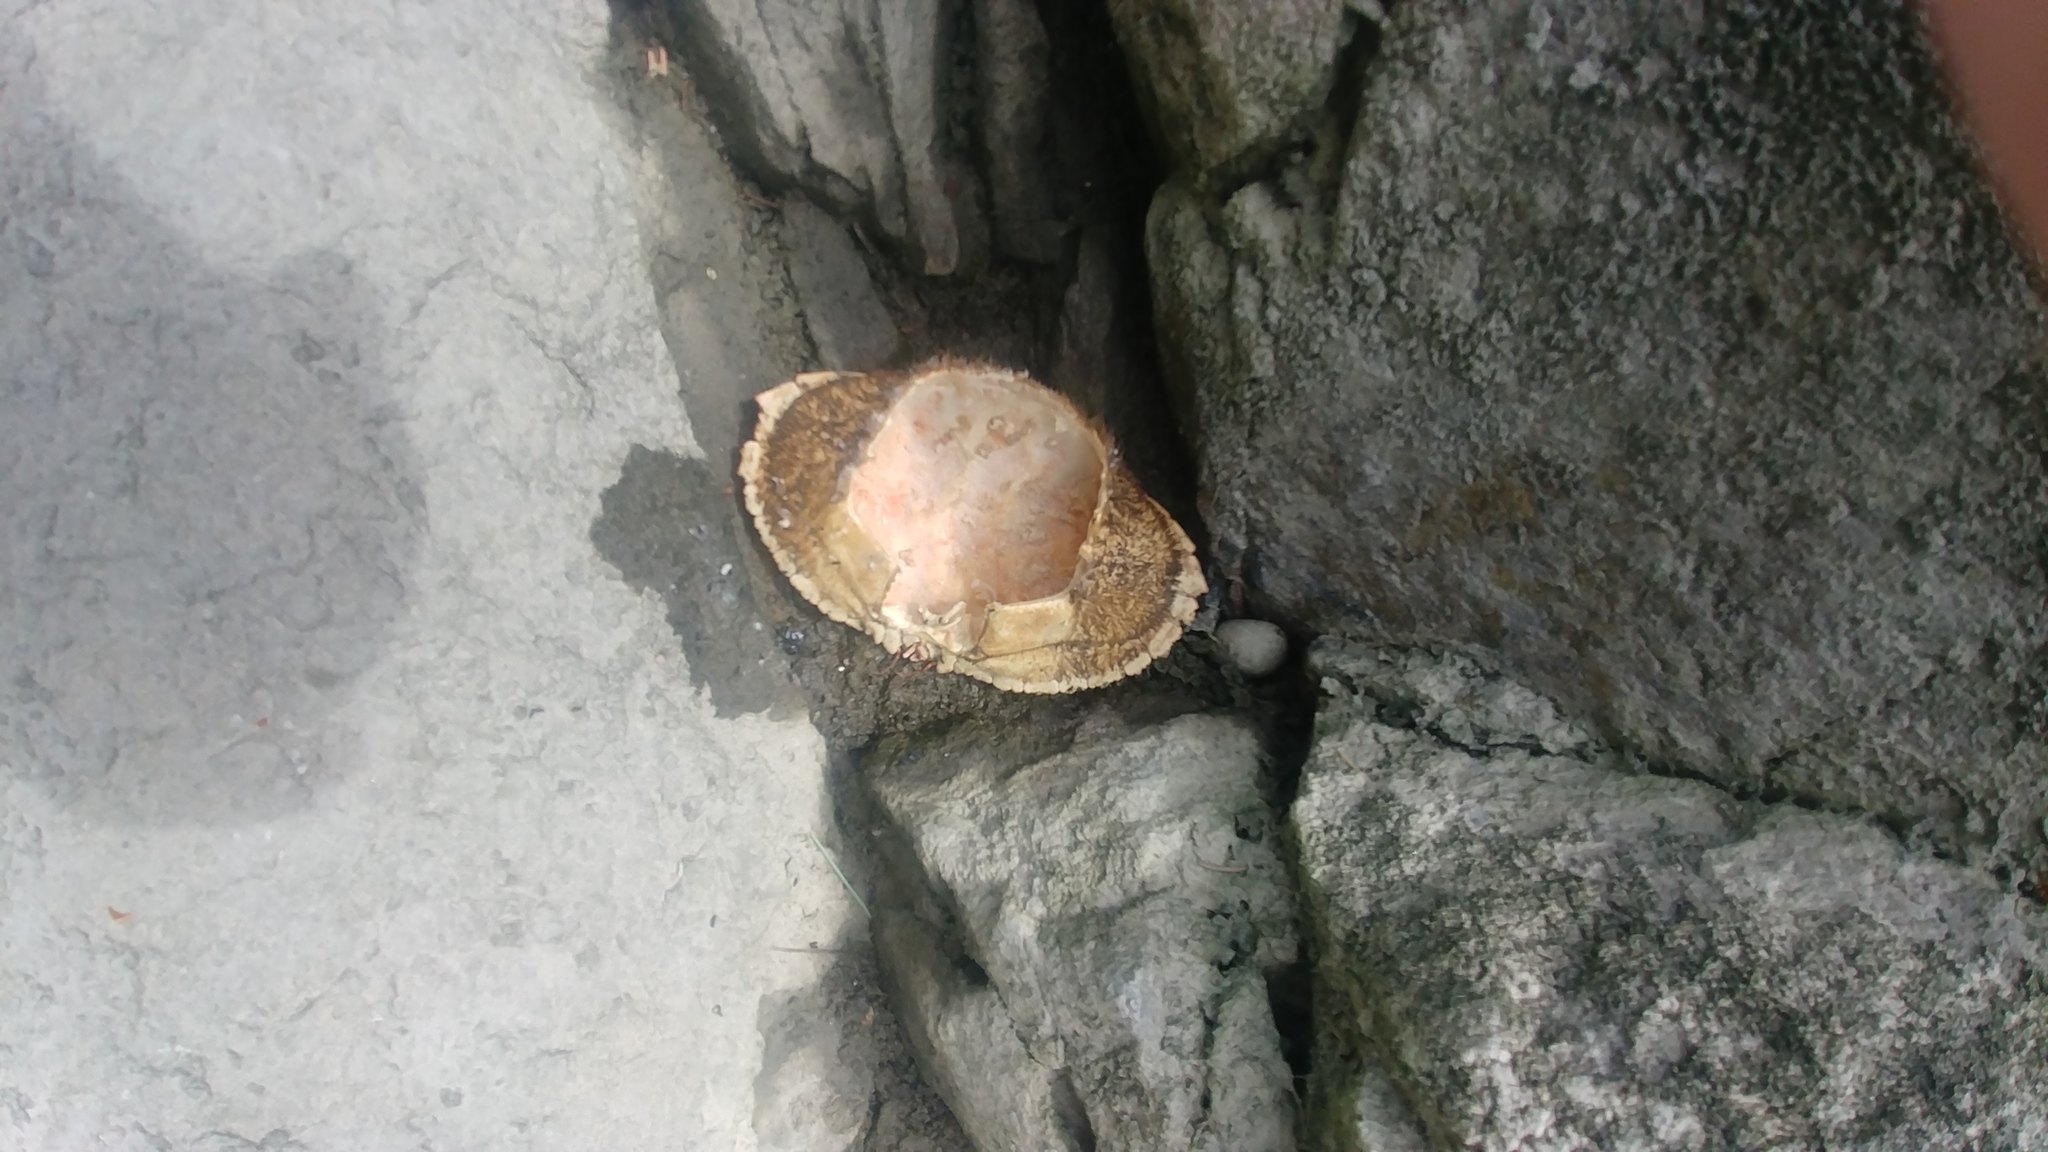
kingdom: Animalia
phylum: Arthropoda
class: Malacostraca
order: Decapoda
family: Cancridae
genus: Cancer
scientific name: Cancer borealis
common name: Jonah crab
